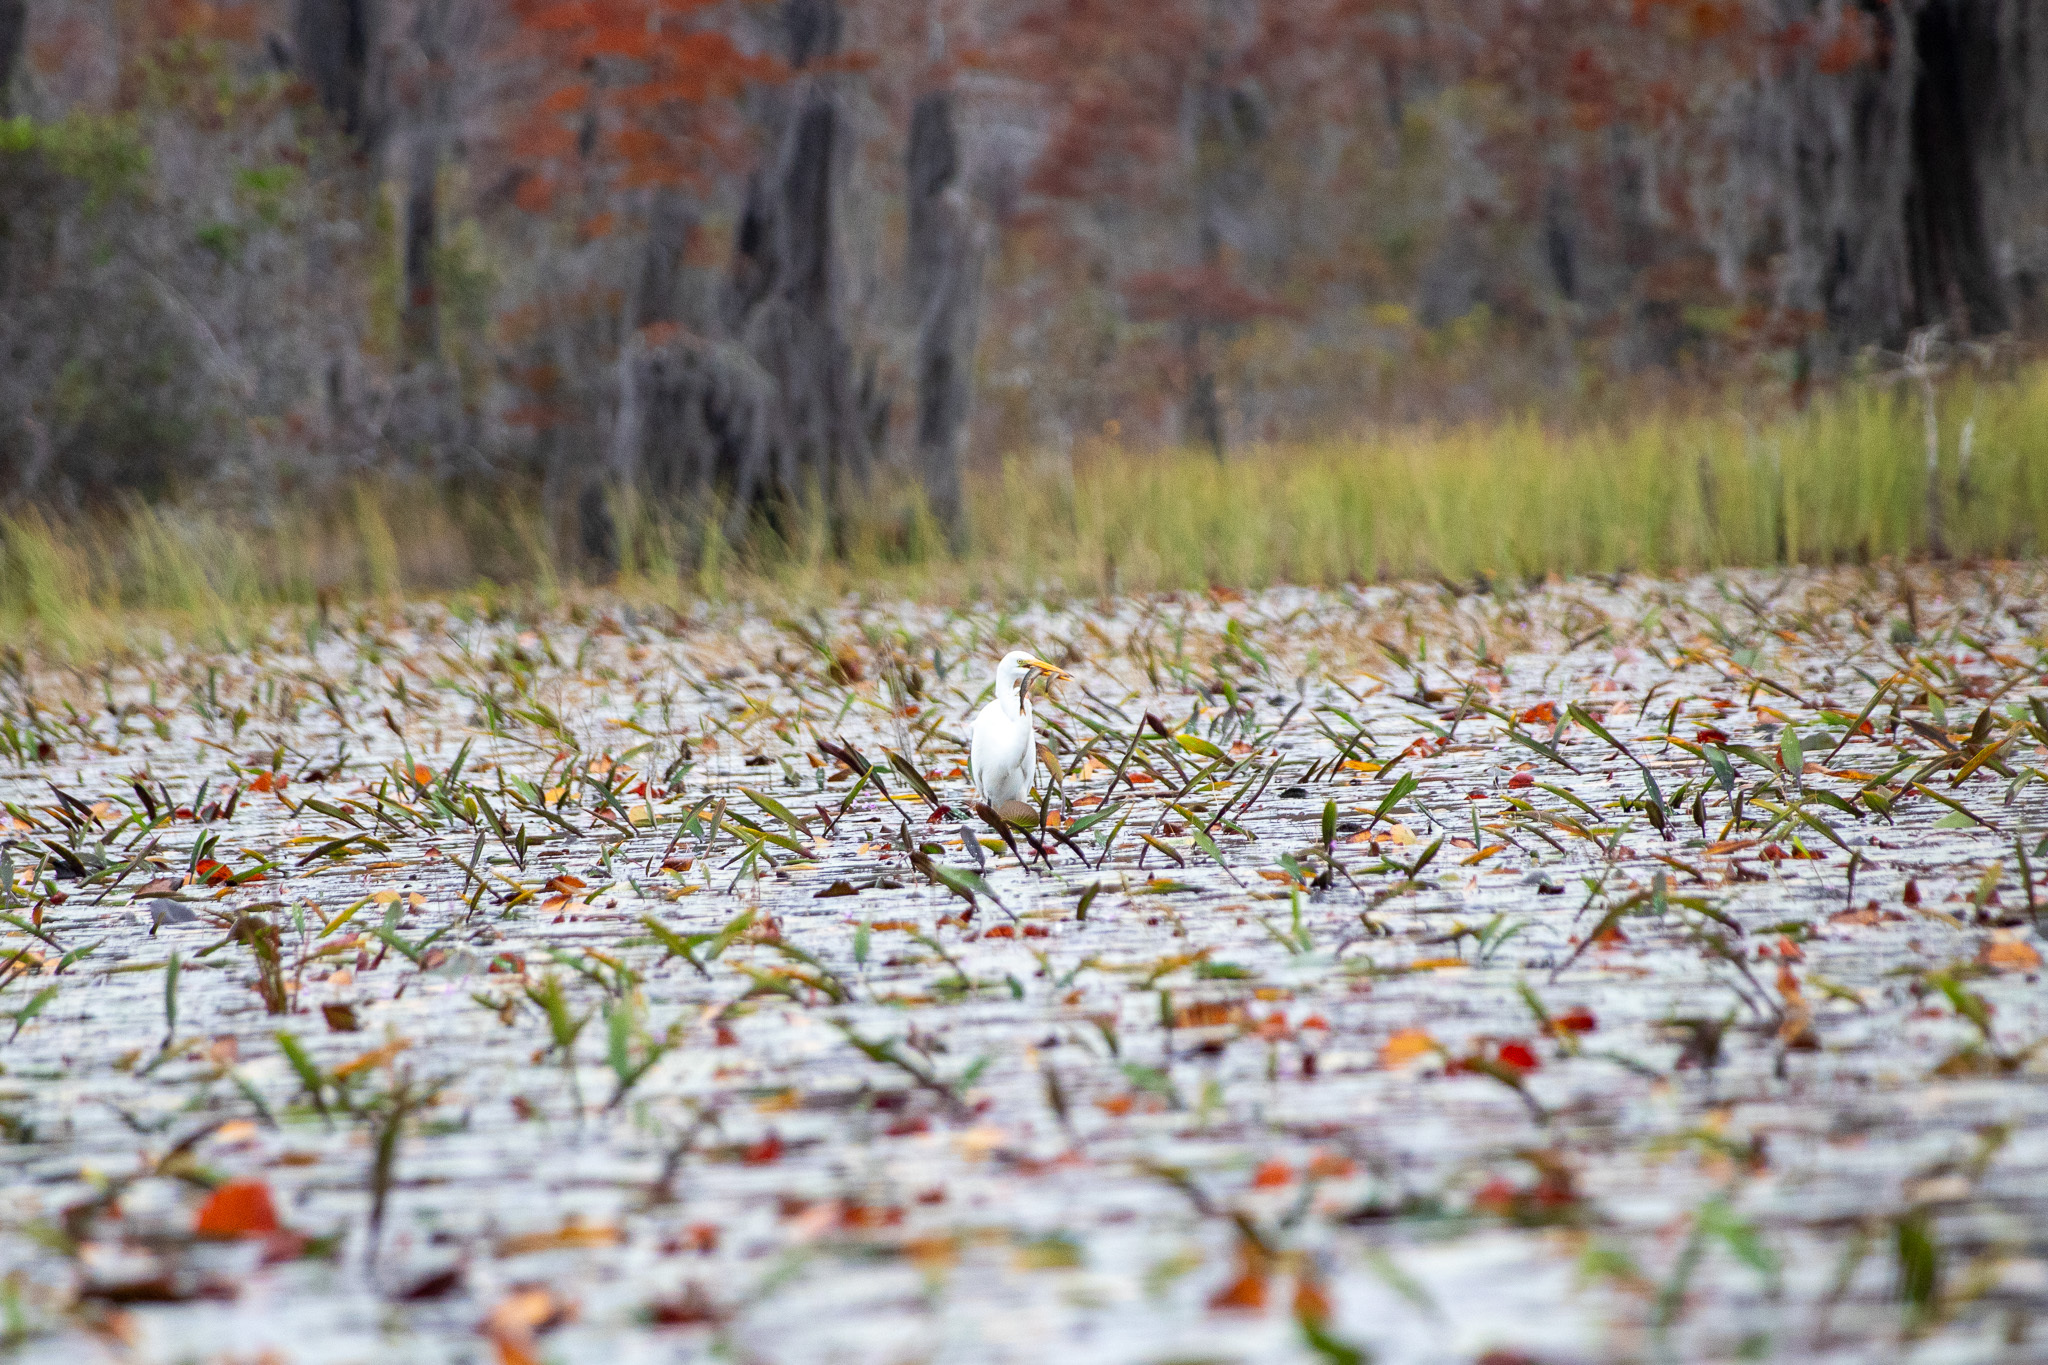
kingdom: Animalia
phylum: Chordata
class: Aves
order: Pelecaniformes
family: Ardeidae
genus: Ardea
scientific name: Ardea alba
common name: Great egret
